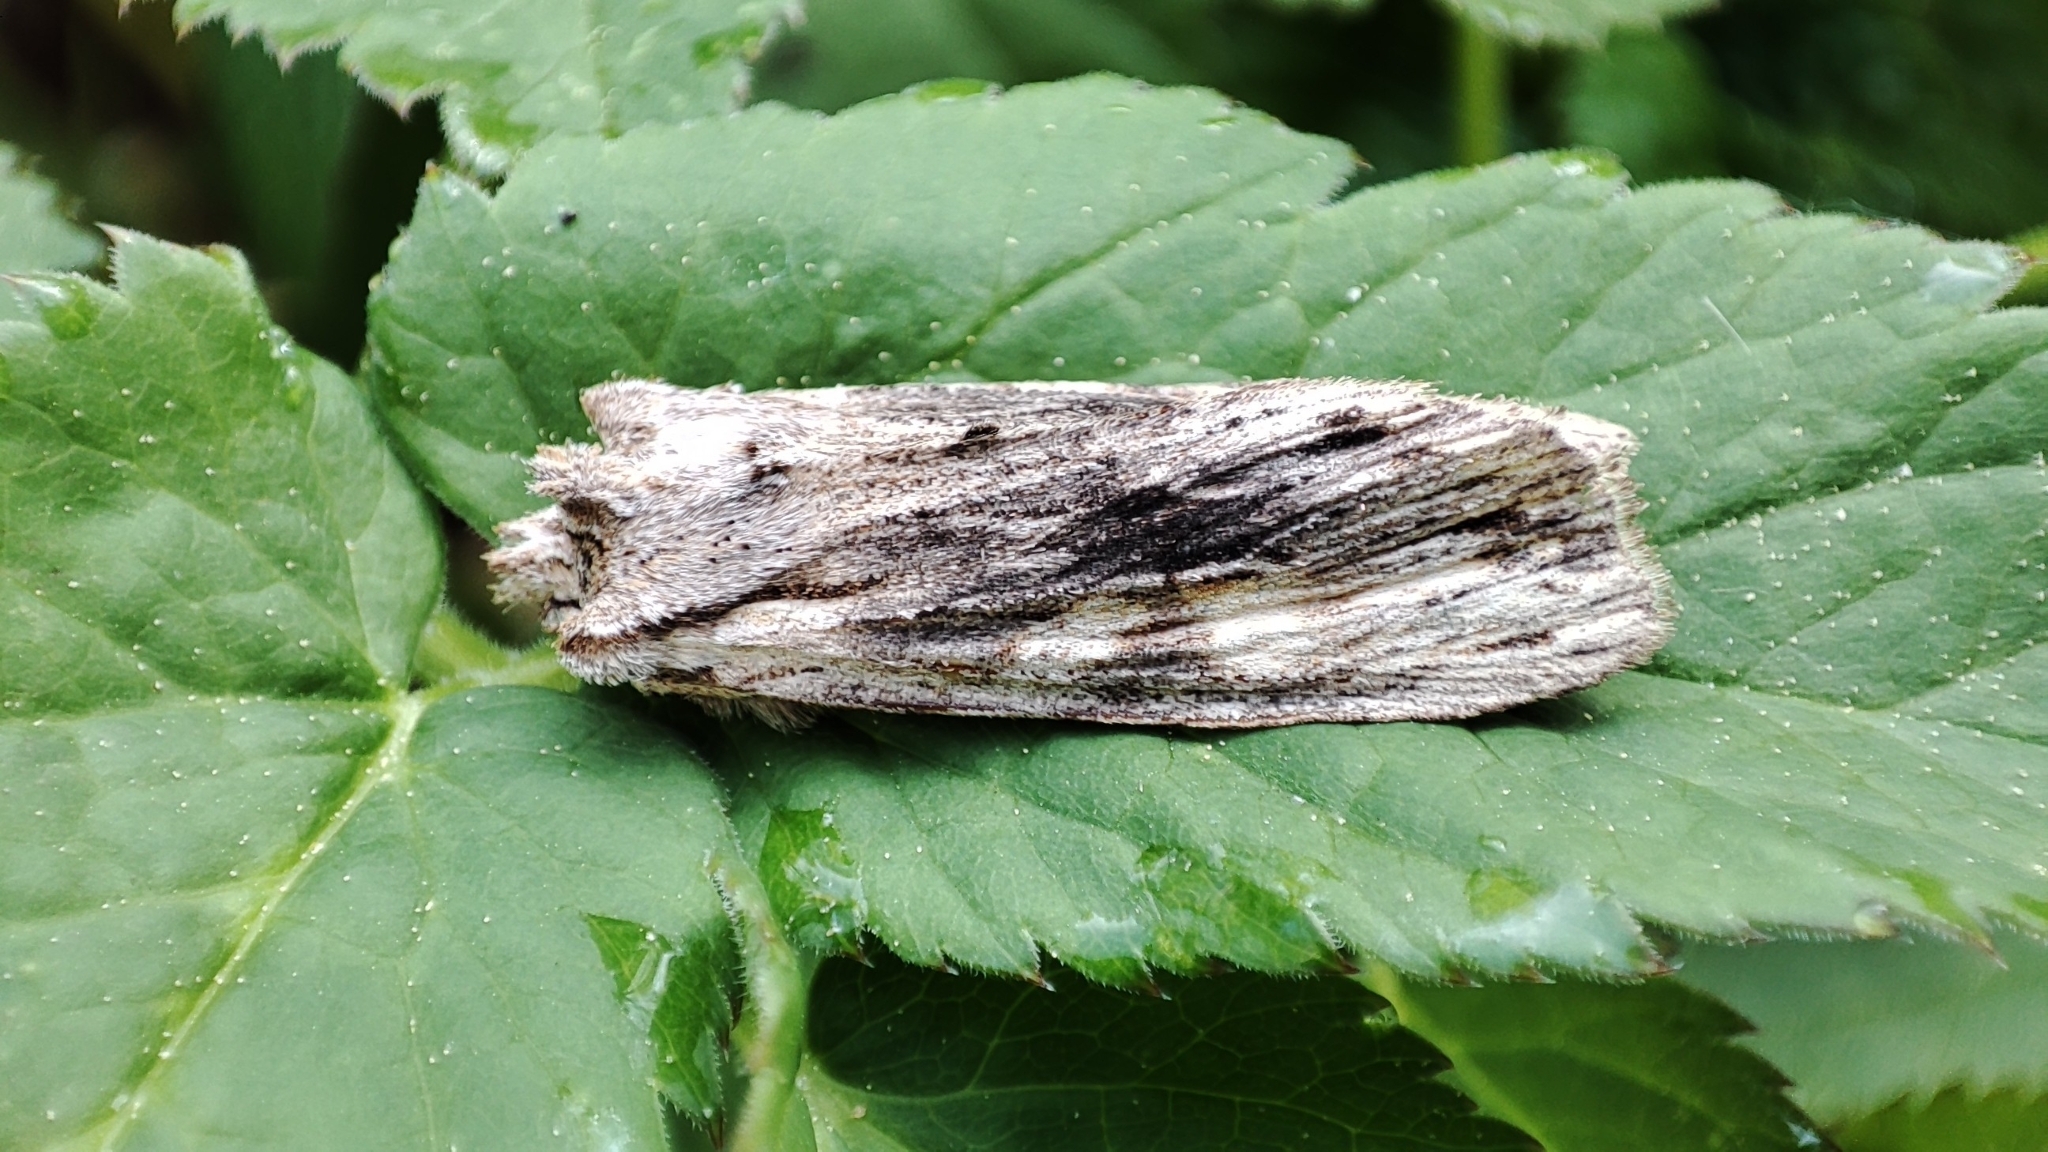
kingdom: Animalia
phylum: Arthropoda
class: Insecta
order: Lepidoptera
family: Noctuidae
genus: Lithophane
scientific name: Lithophane socia
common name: Pale pinion
